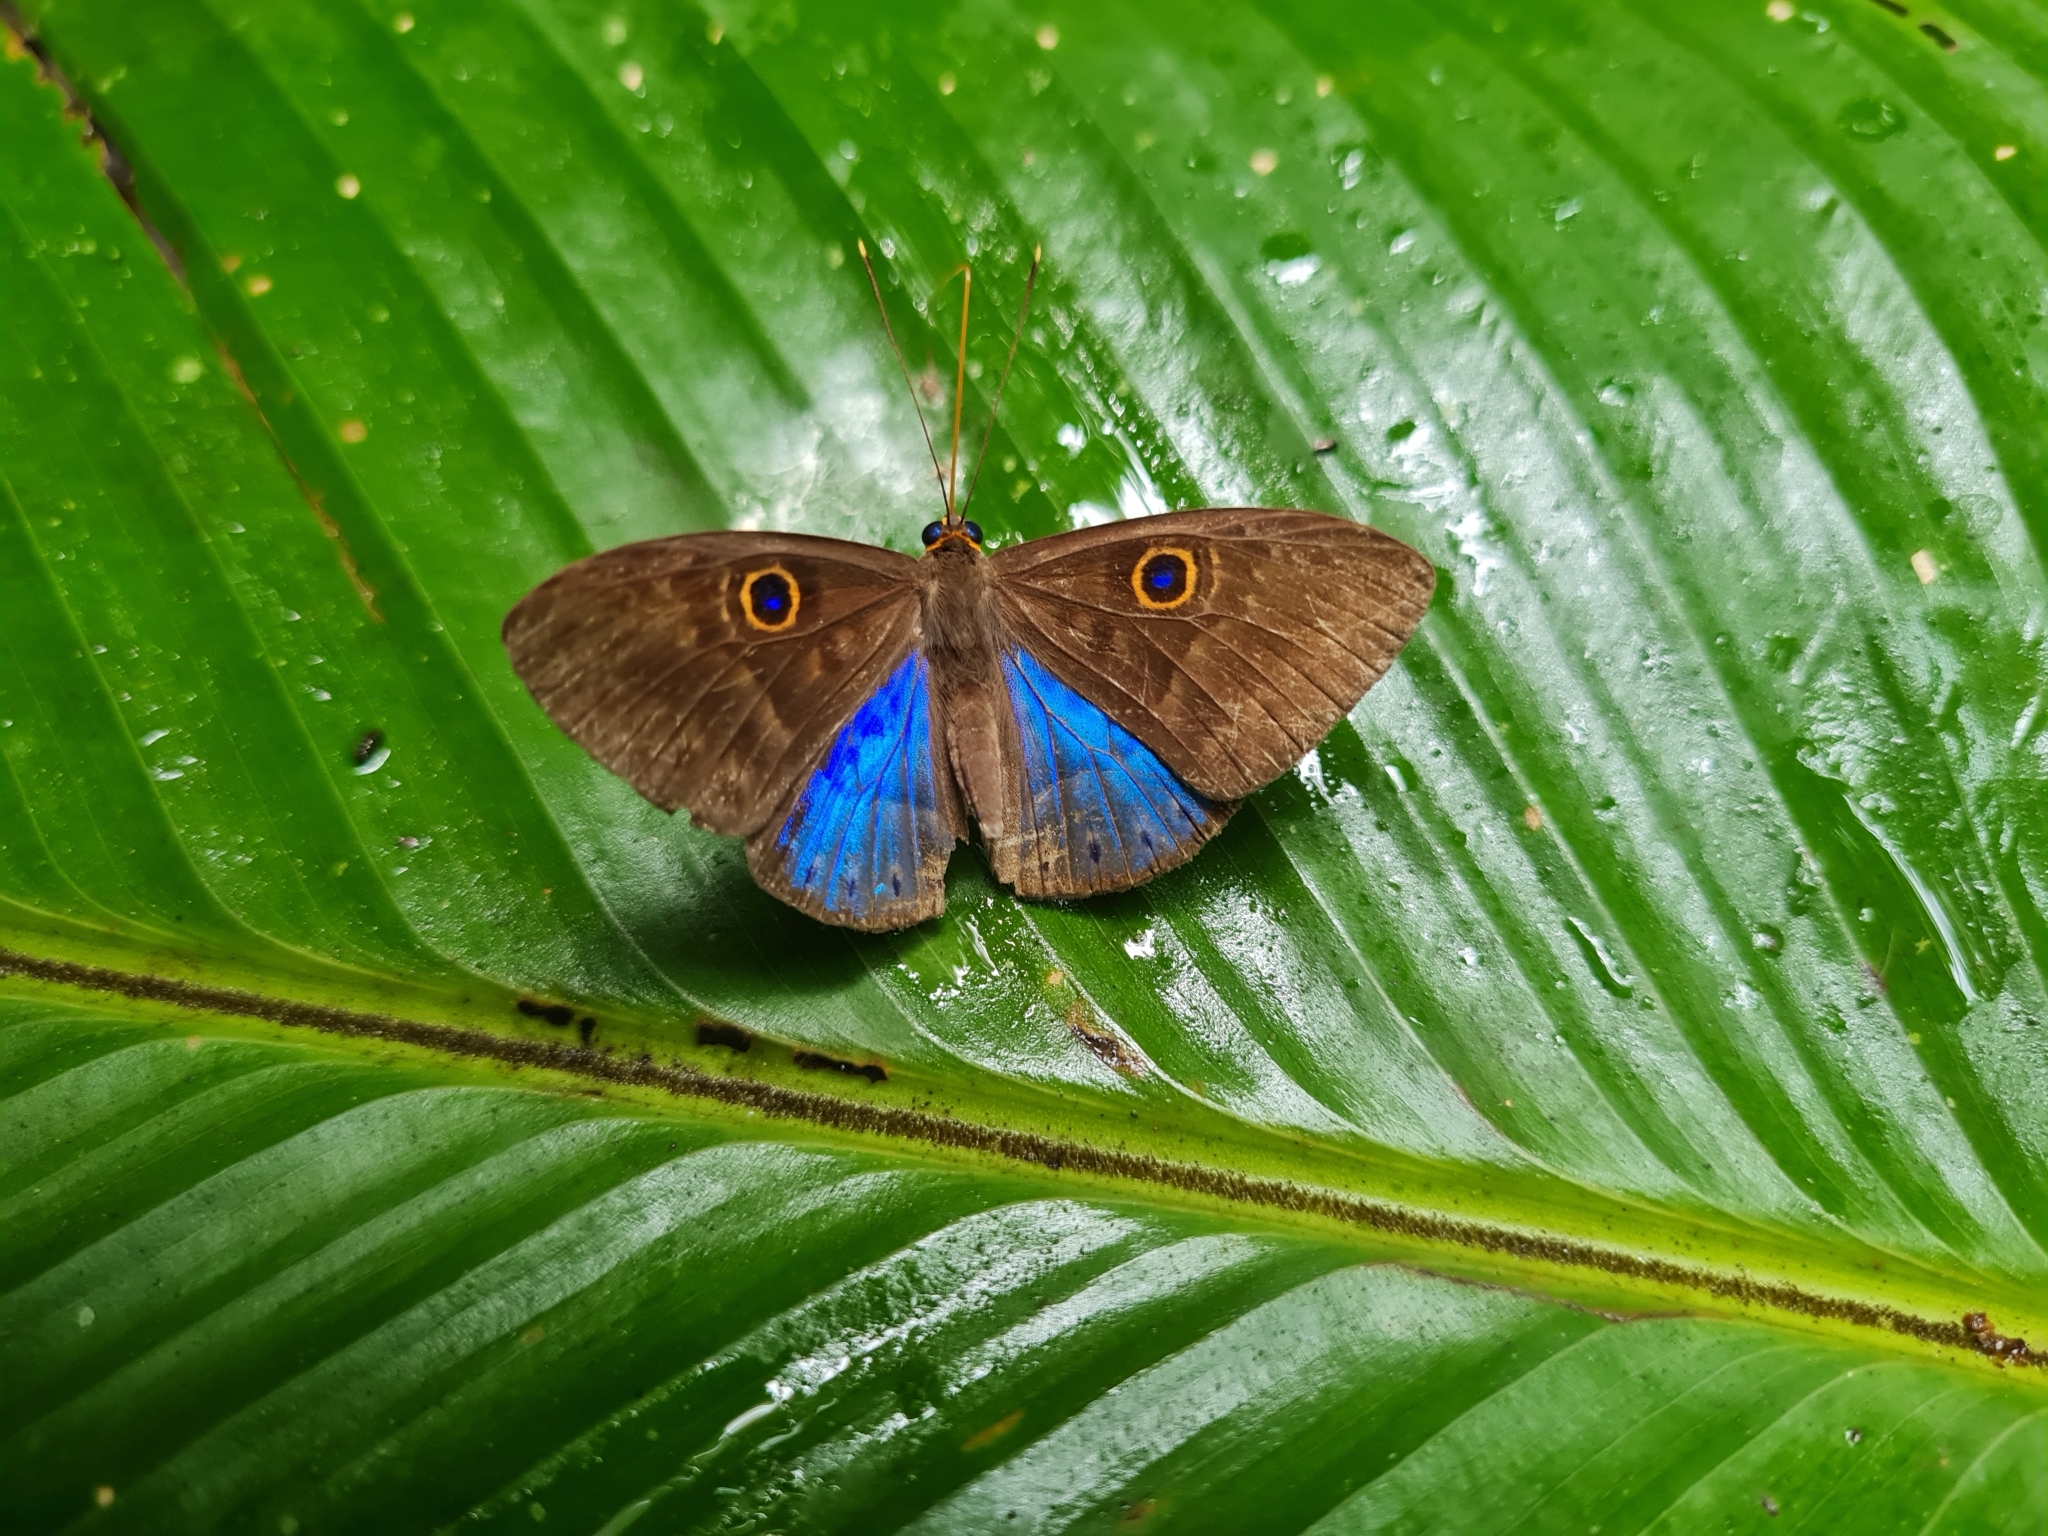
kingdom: Animalia
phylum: Cnidaria
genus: Eurybia
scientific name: Eurybia lycisca
